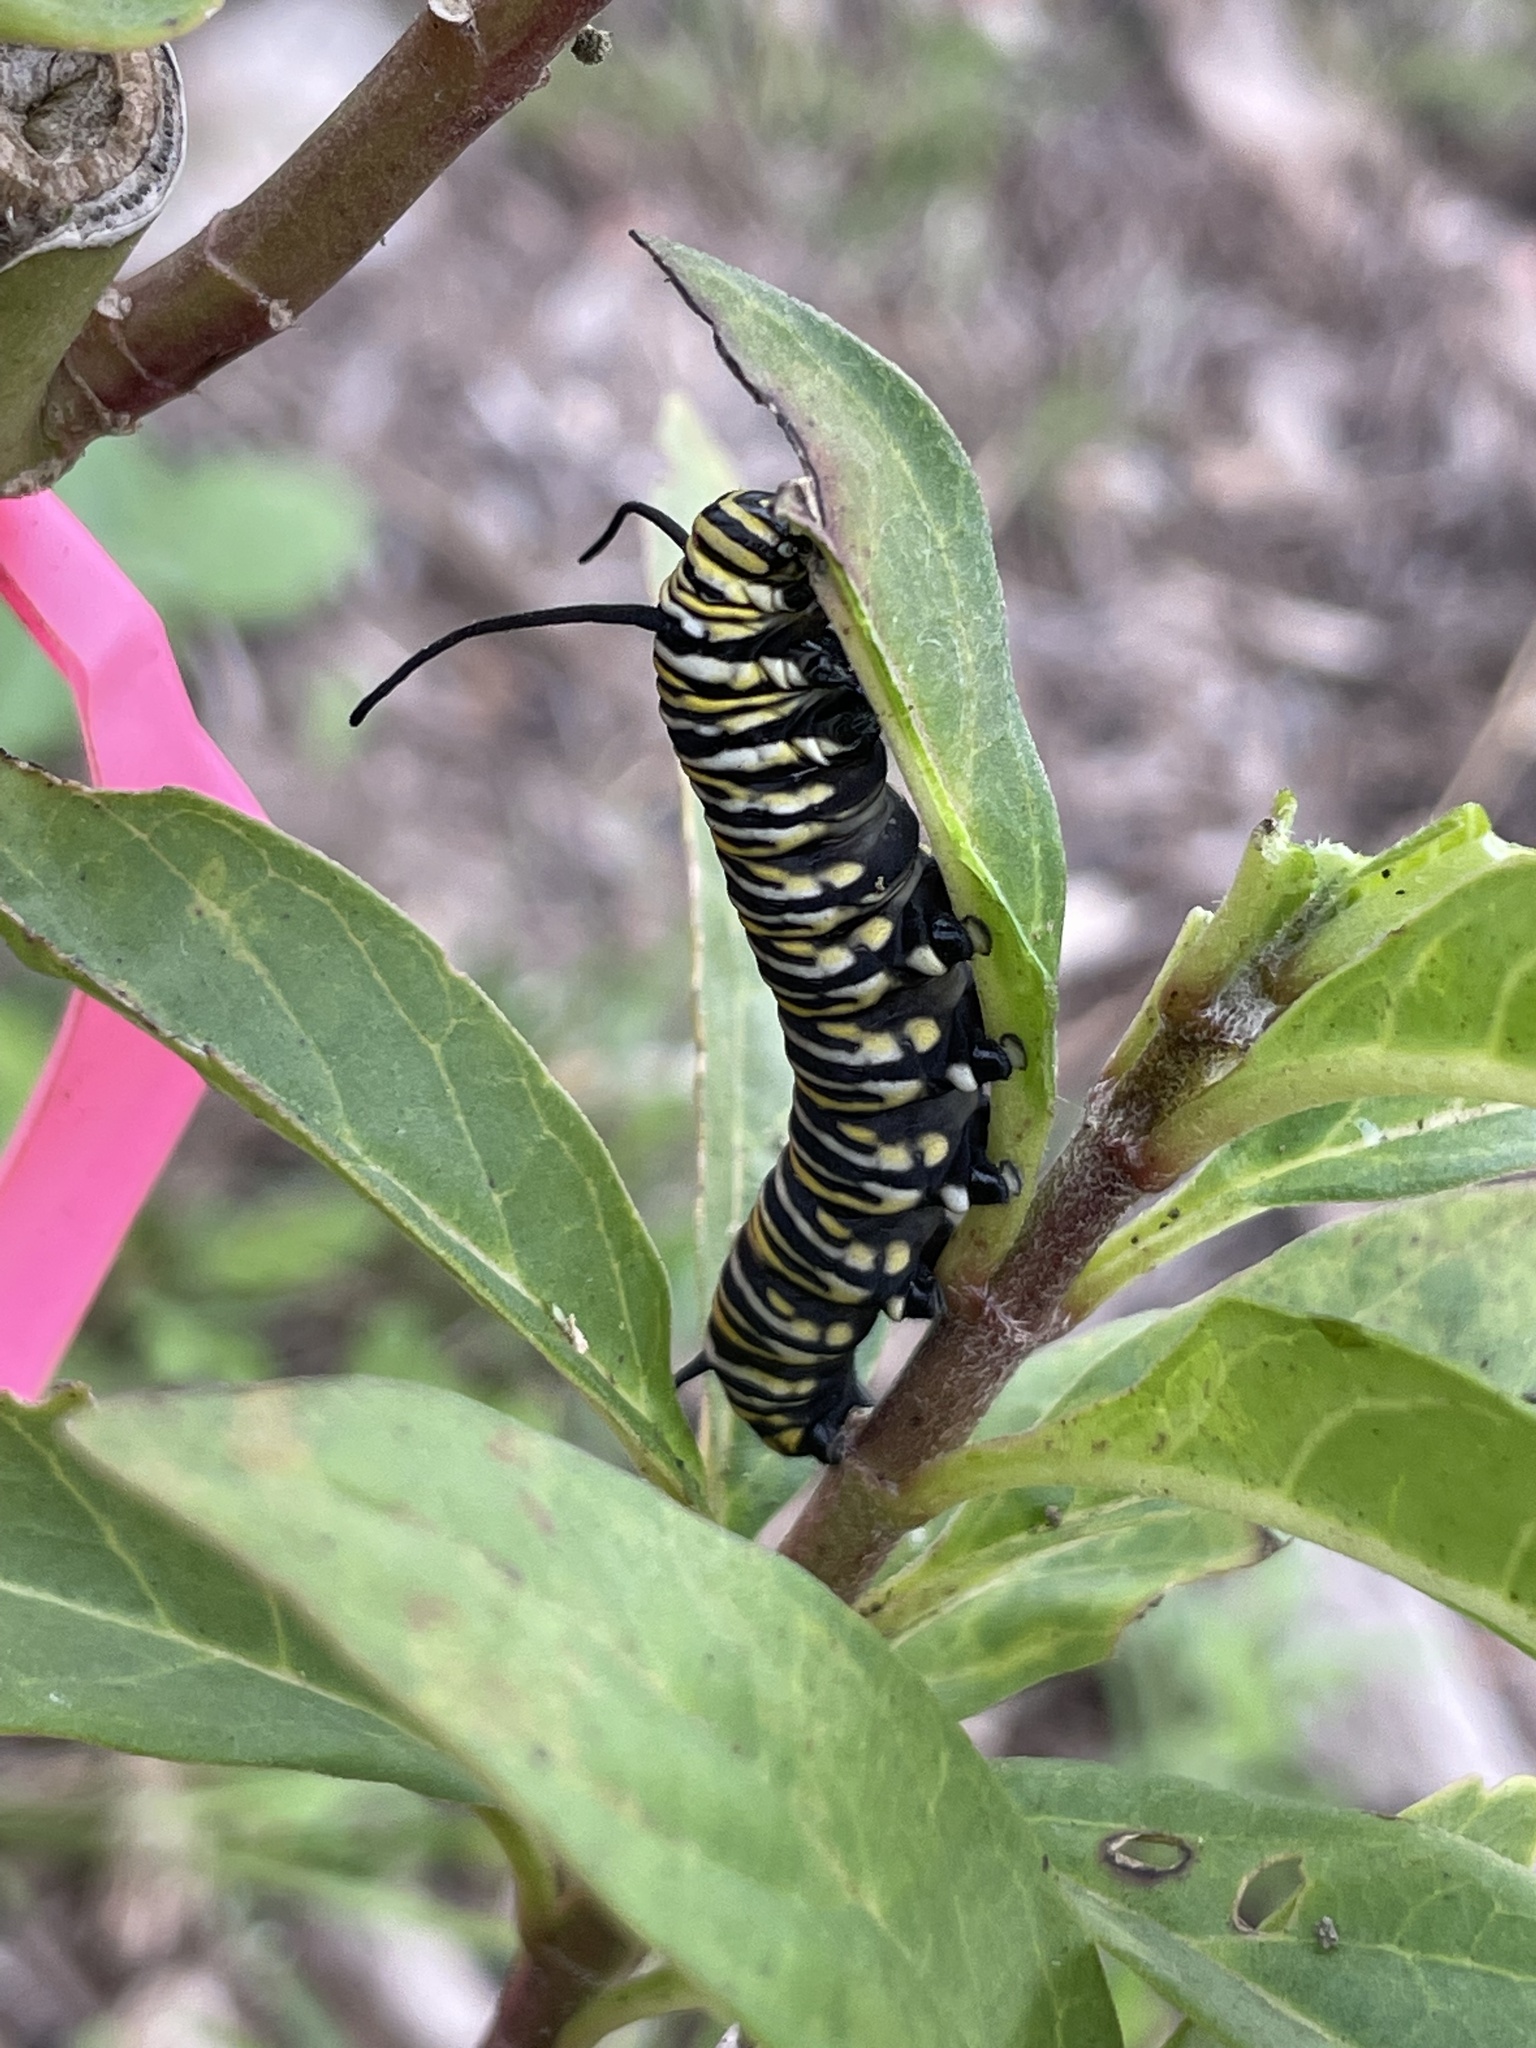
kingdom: Animalia
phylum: Arthropoda
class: Insecta
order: Lepidoptera
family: Nymphalidae
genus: Danaus
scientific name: Danaus plexippus
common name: Monarch
